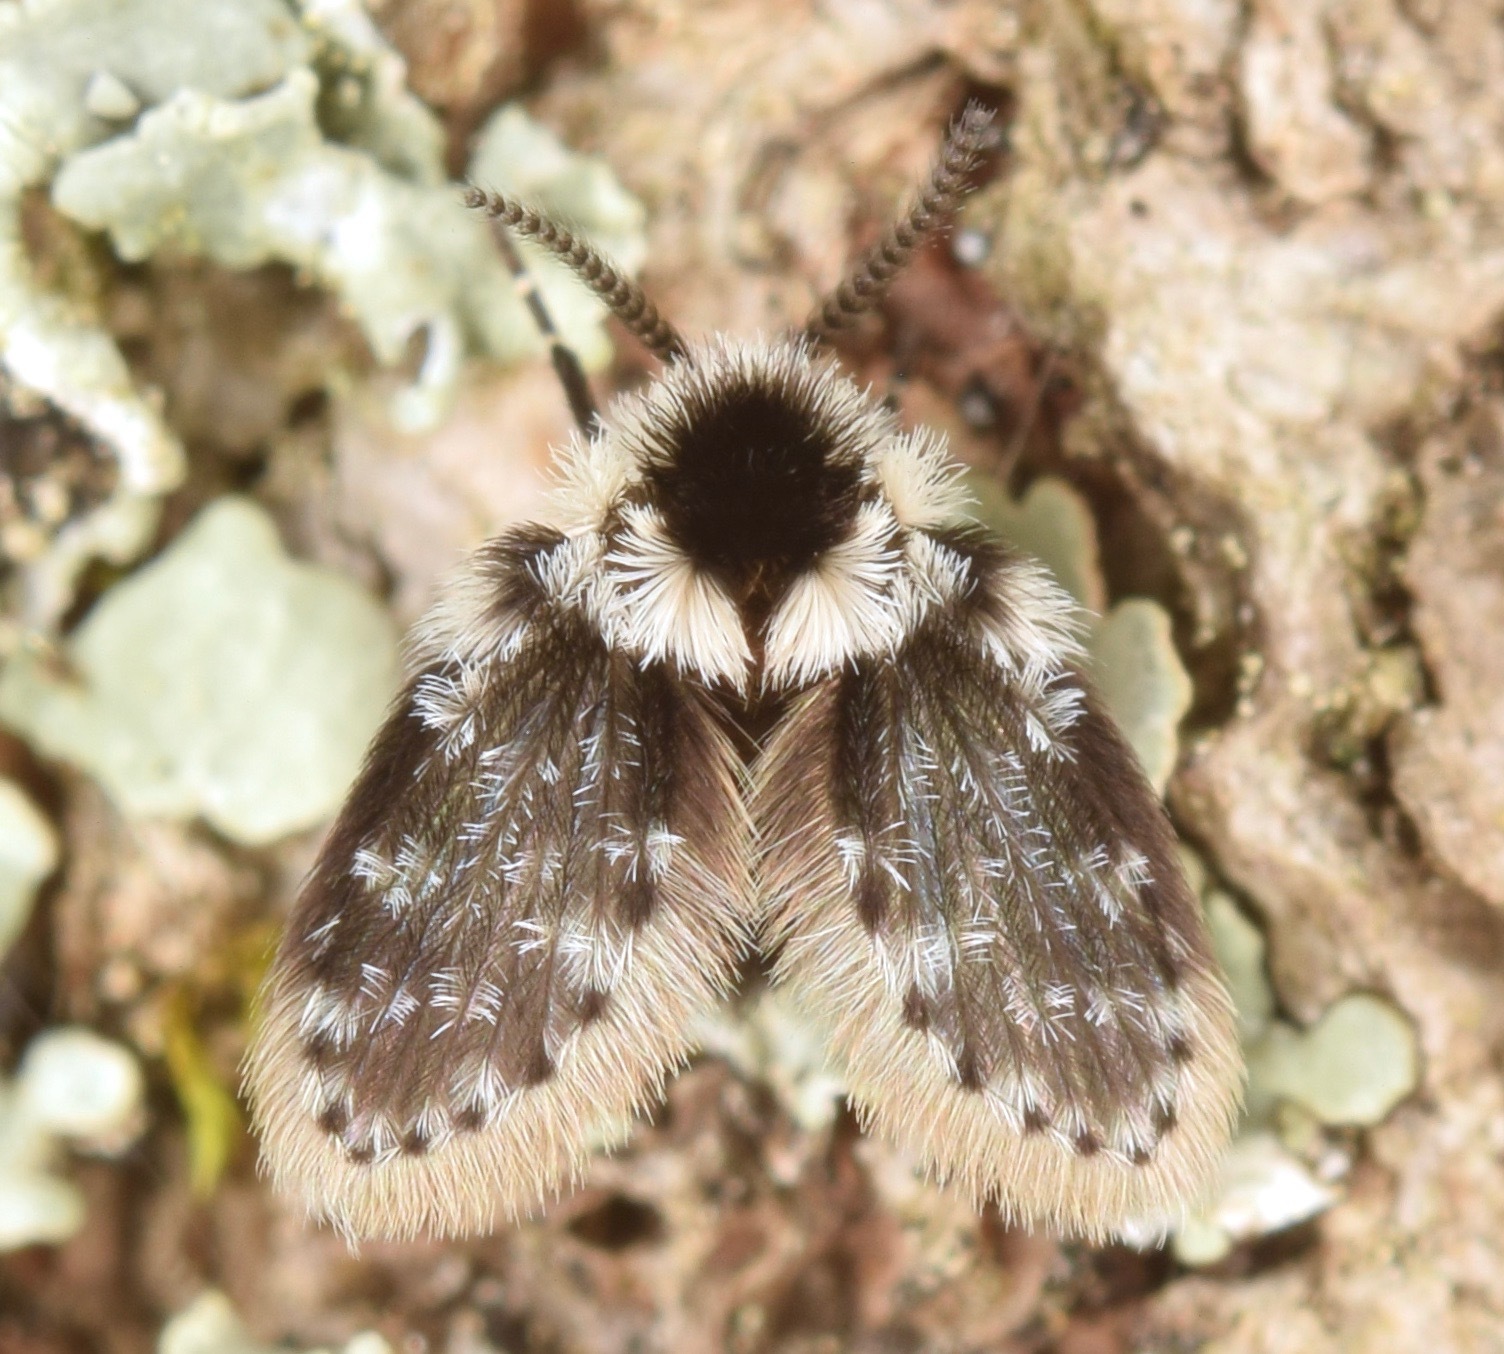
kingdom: Animalia
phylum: Arthropoda
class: Insecta
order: Diptera
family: Psychodidae
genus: Lepiseodina
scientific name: Lepiseodina
